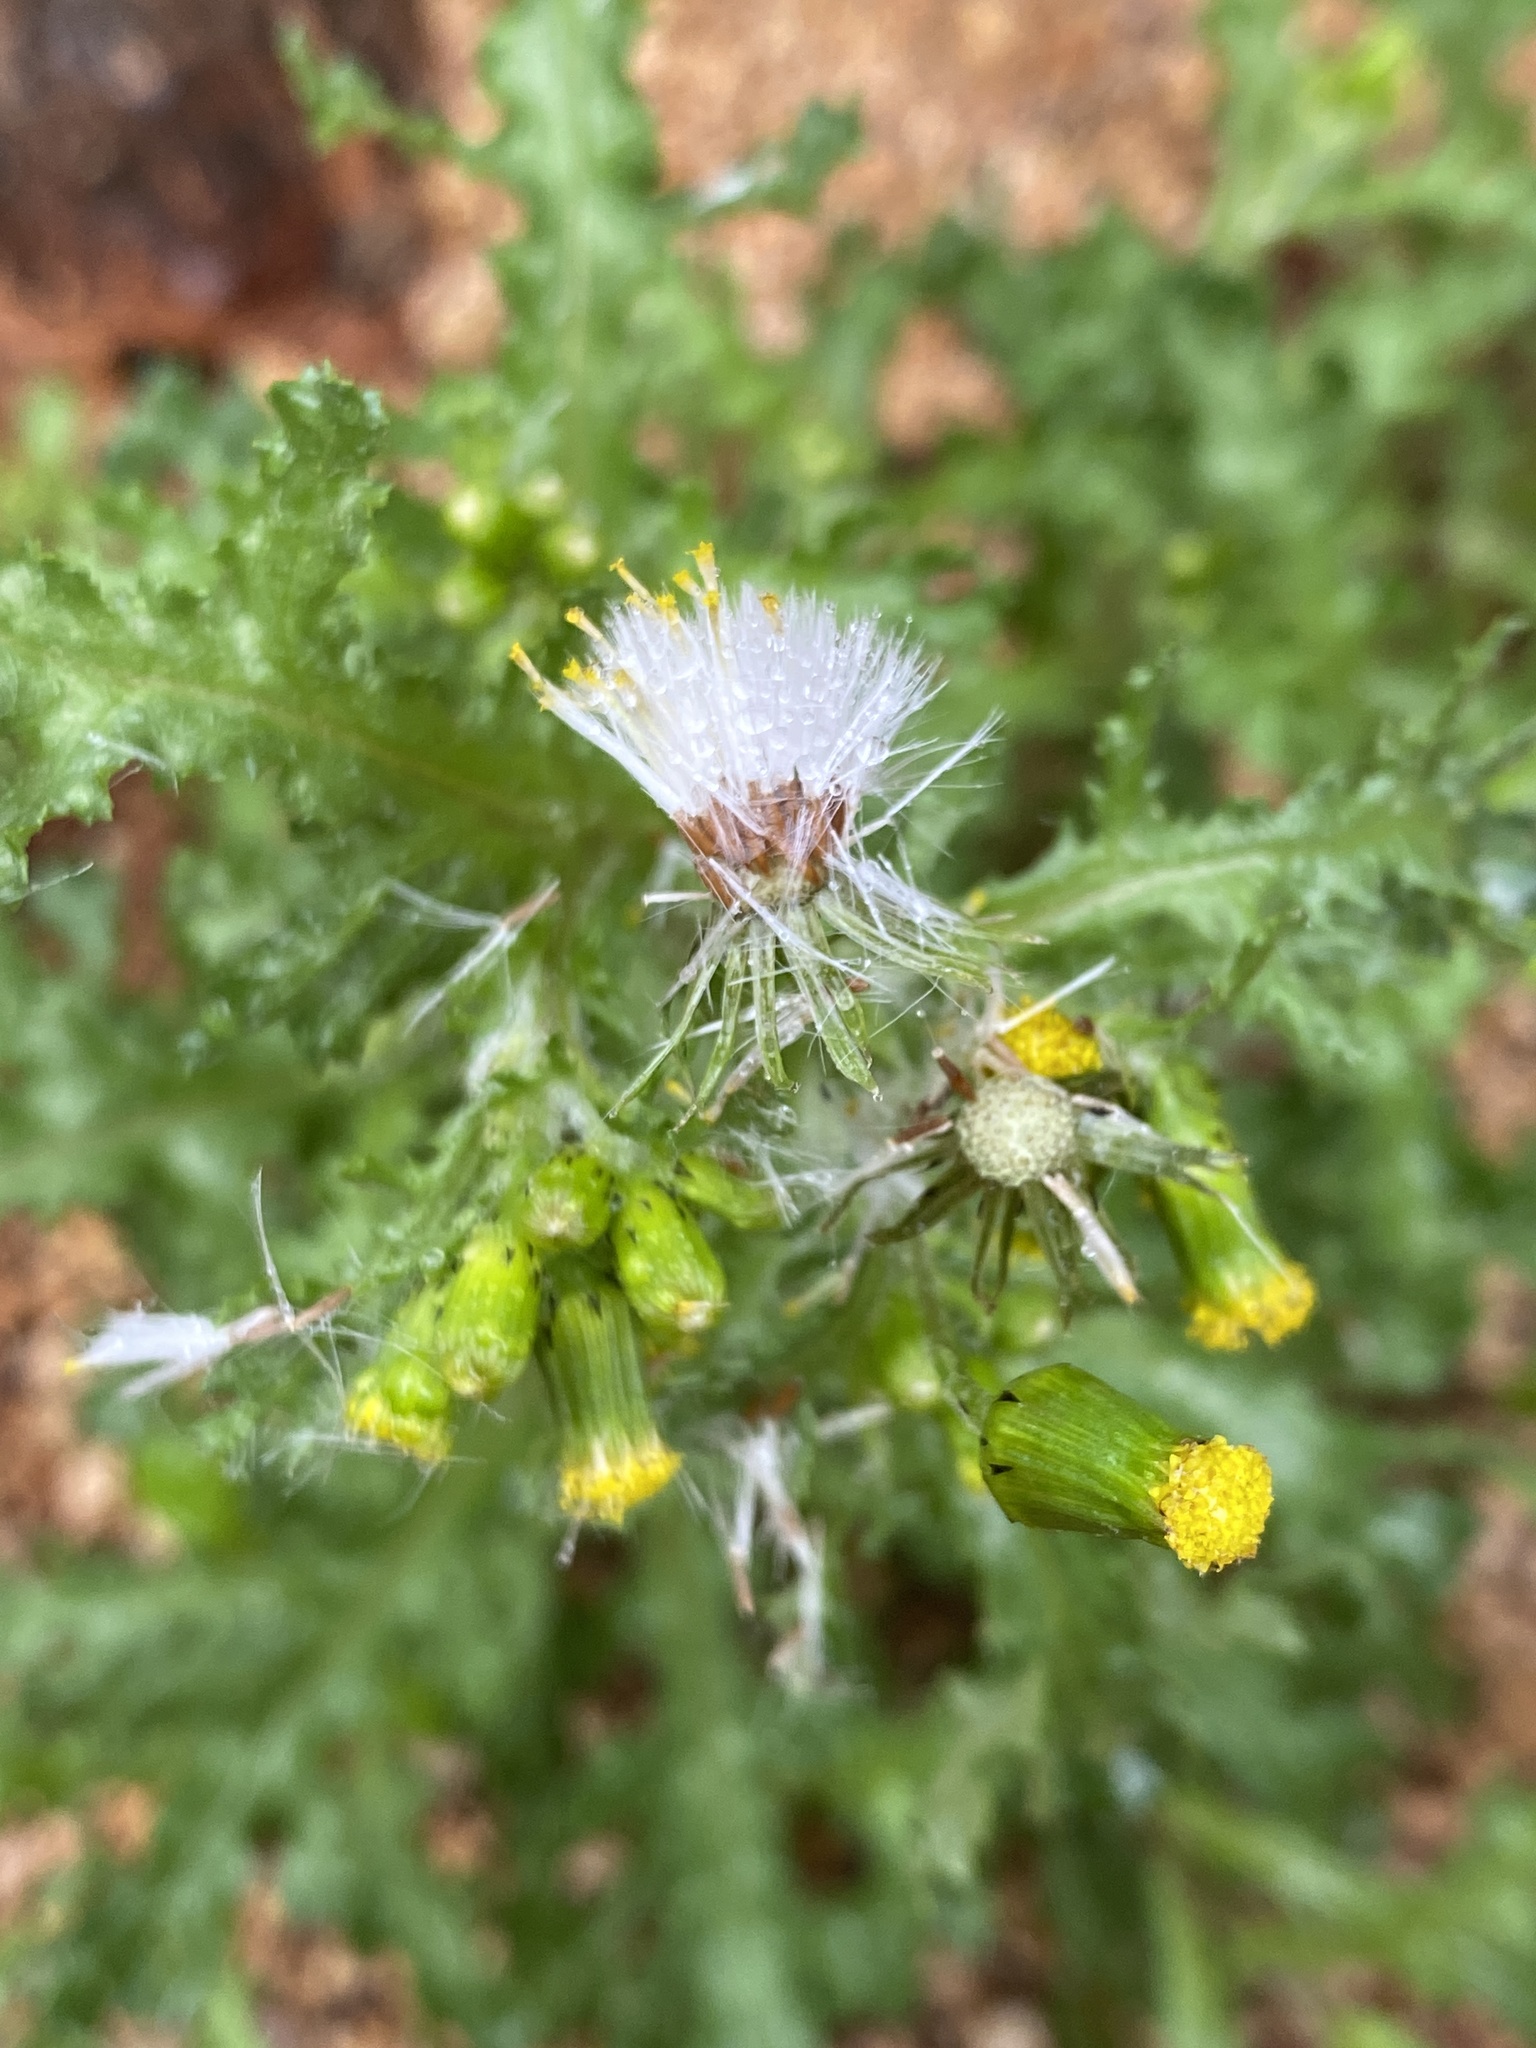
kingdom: Plantae
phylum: Tracheophyta
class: Magnoliopsida
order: Asterales
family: Asteraceae
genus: Senecio
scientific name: Senecio vulgaris
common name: Old-man-in-the-spring
